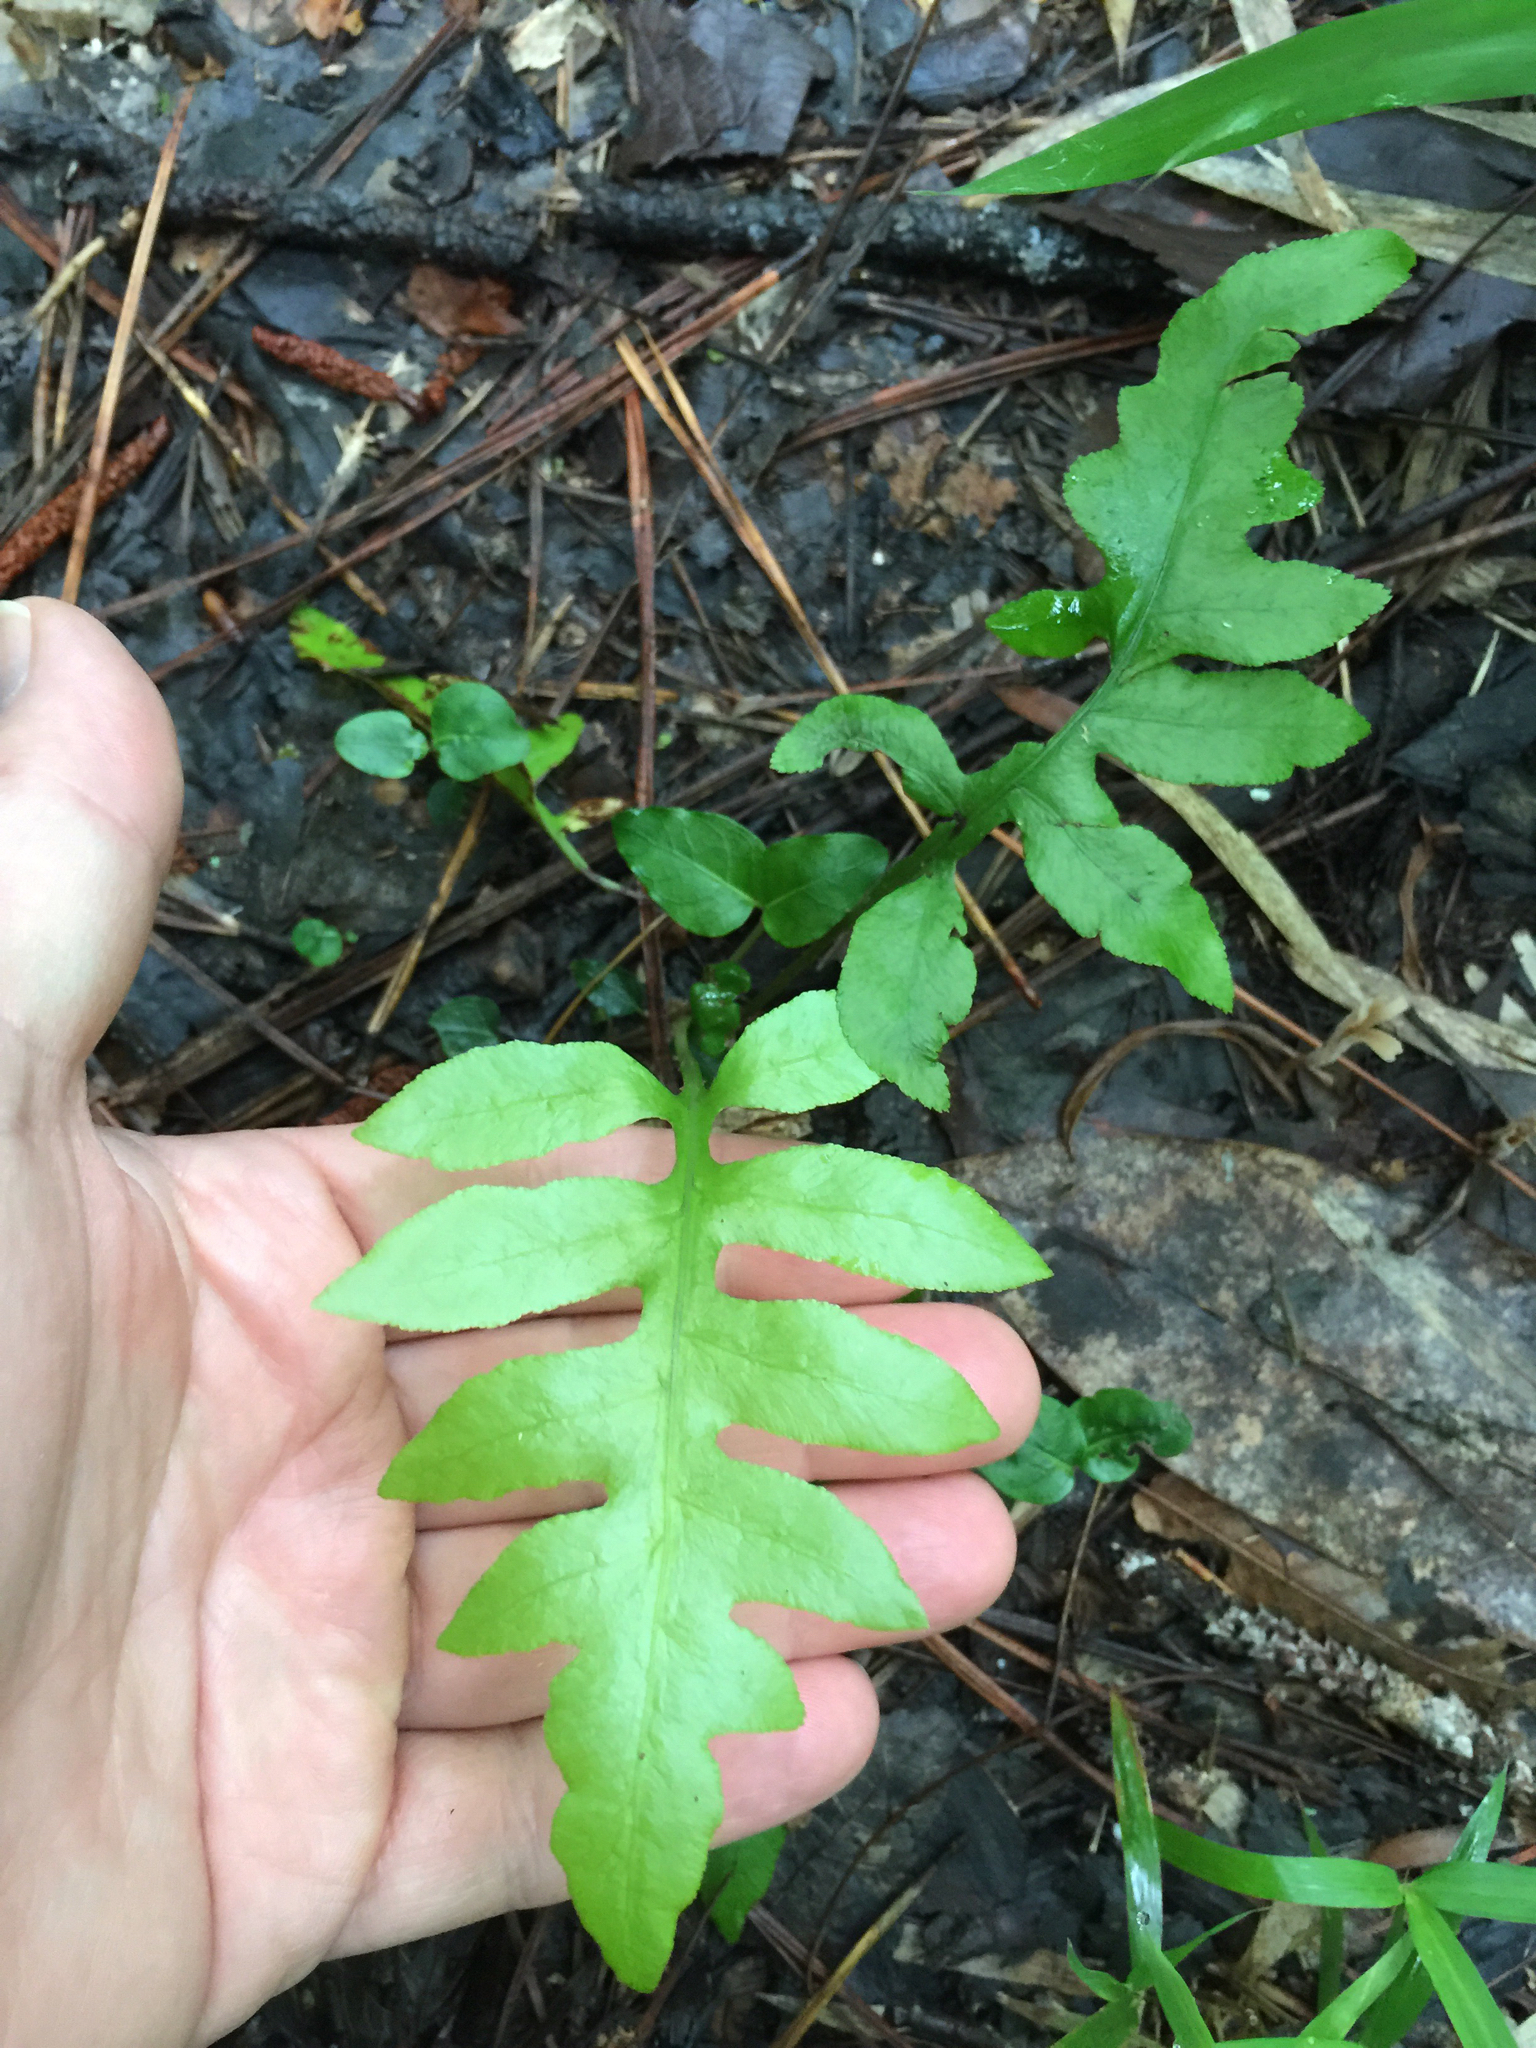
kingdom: Plantae
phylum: Tracheophyta
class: Polypodiopsida
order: Polypodiales
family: Blechnaceae
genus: Lorinseria
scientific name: Lorinseria areolata
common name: Dwarf chain fern
